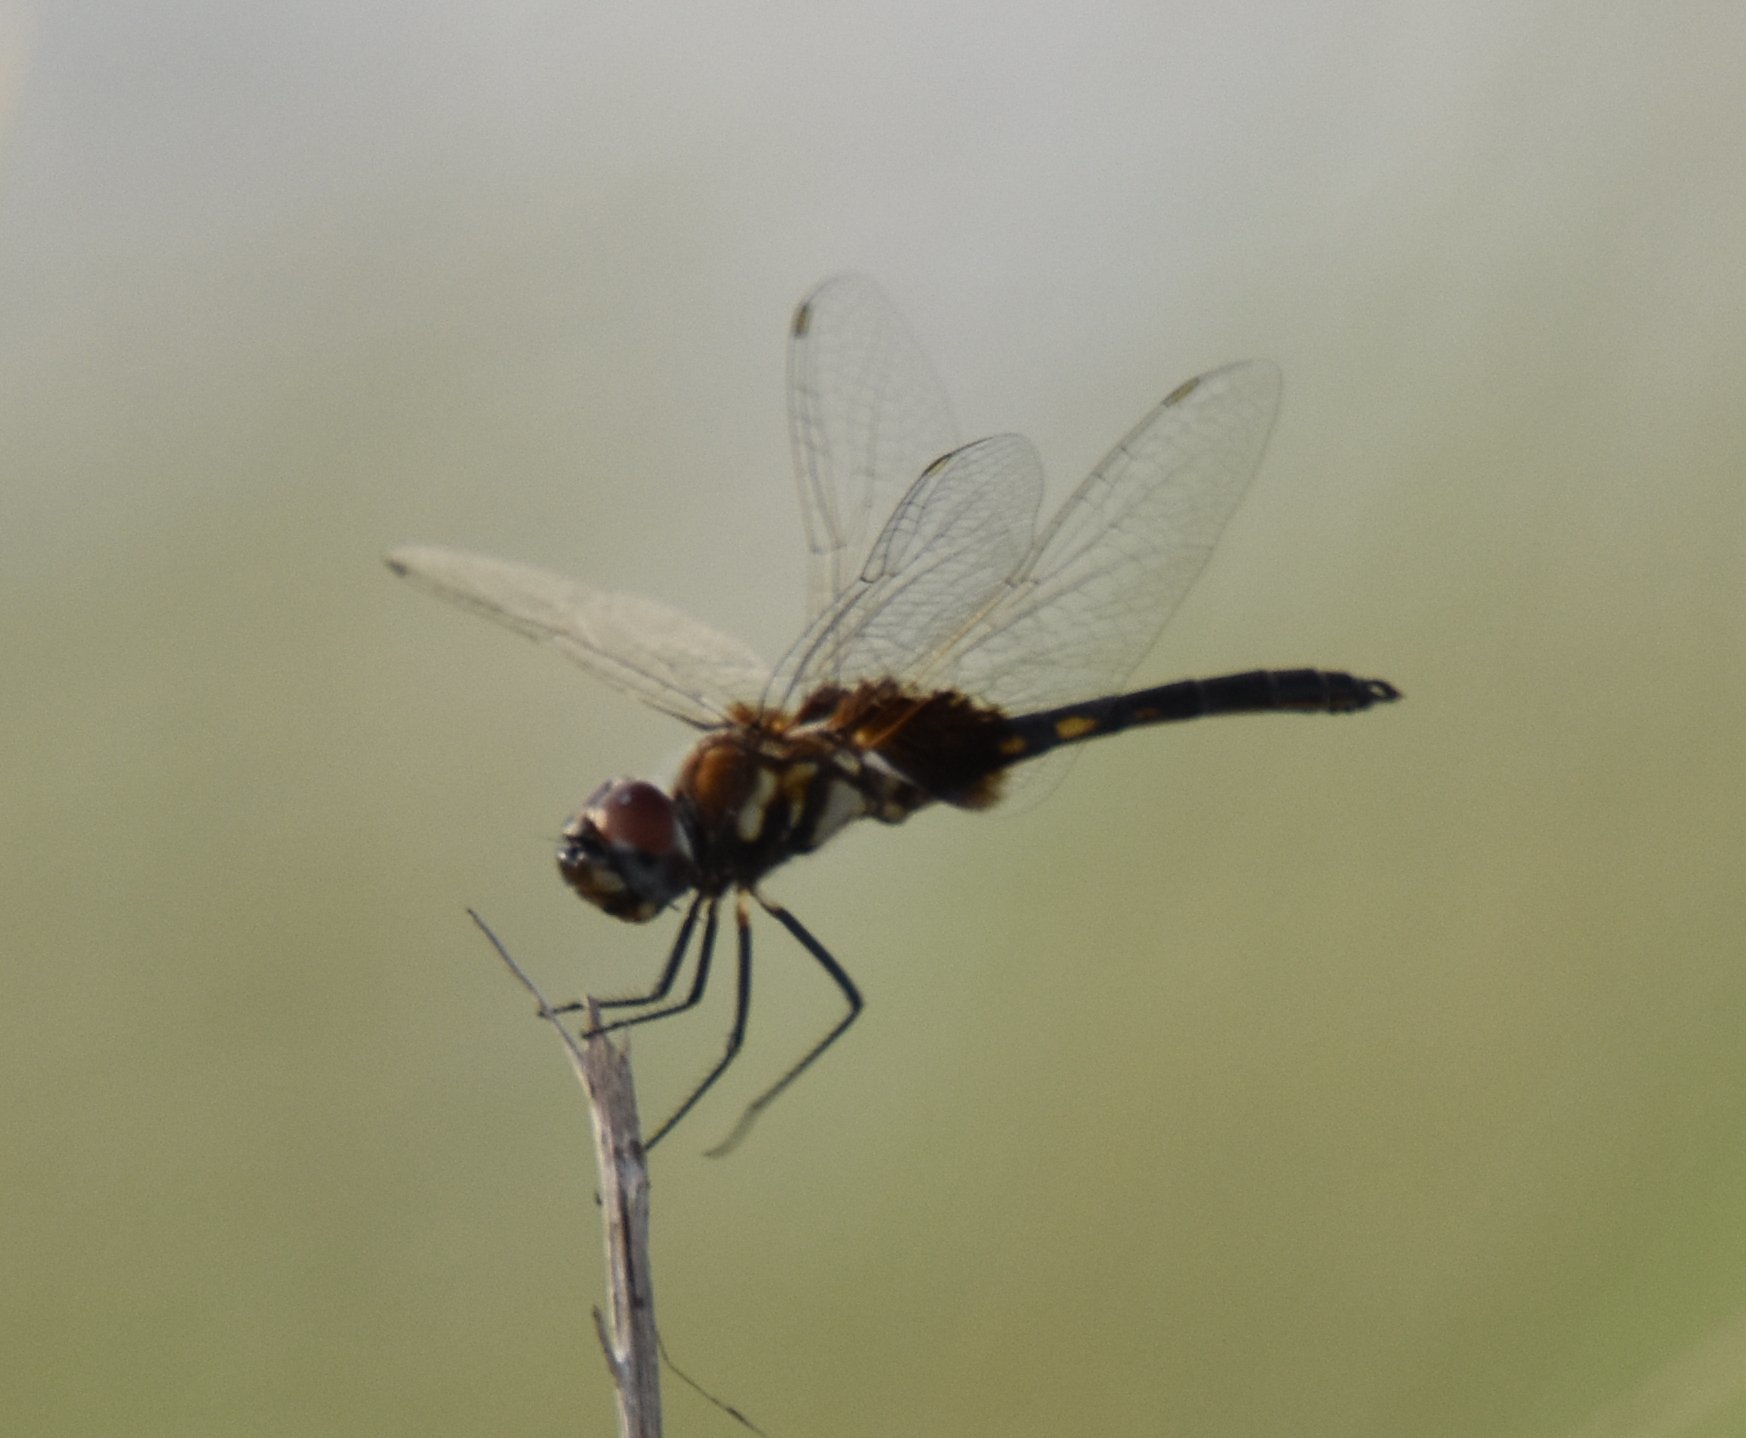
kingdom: Animalia
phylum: Arthropoda
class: Insecta
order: Odonata
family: Libellulidae
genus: Macrodiplax
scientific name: Macrodiplax balteata
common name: Marl pennant
